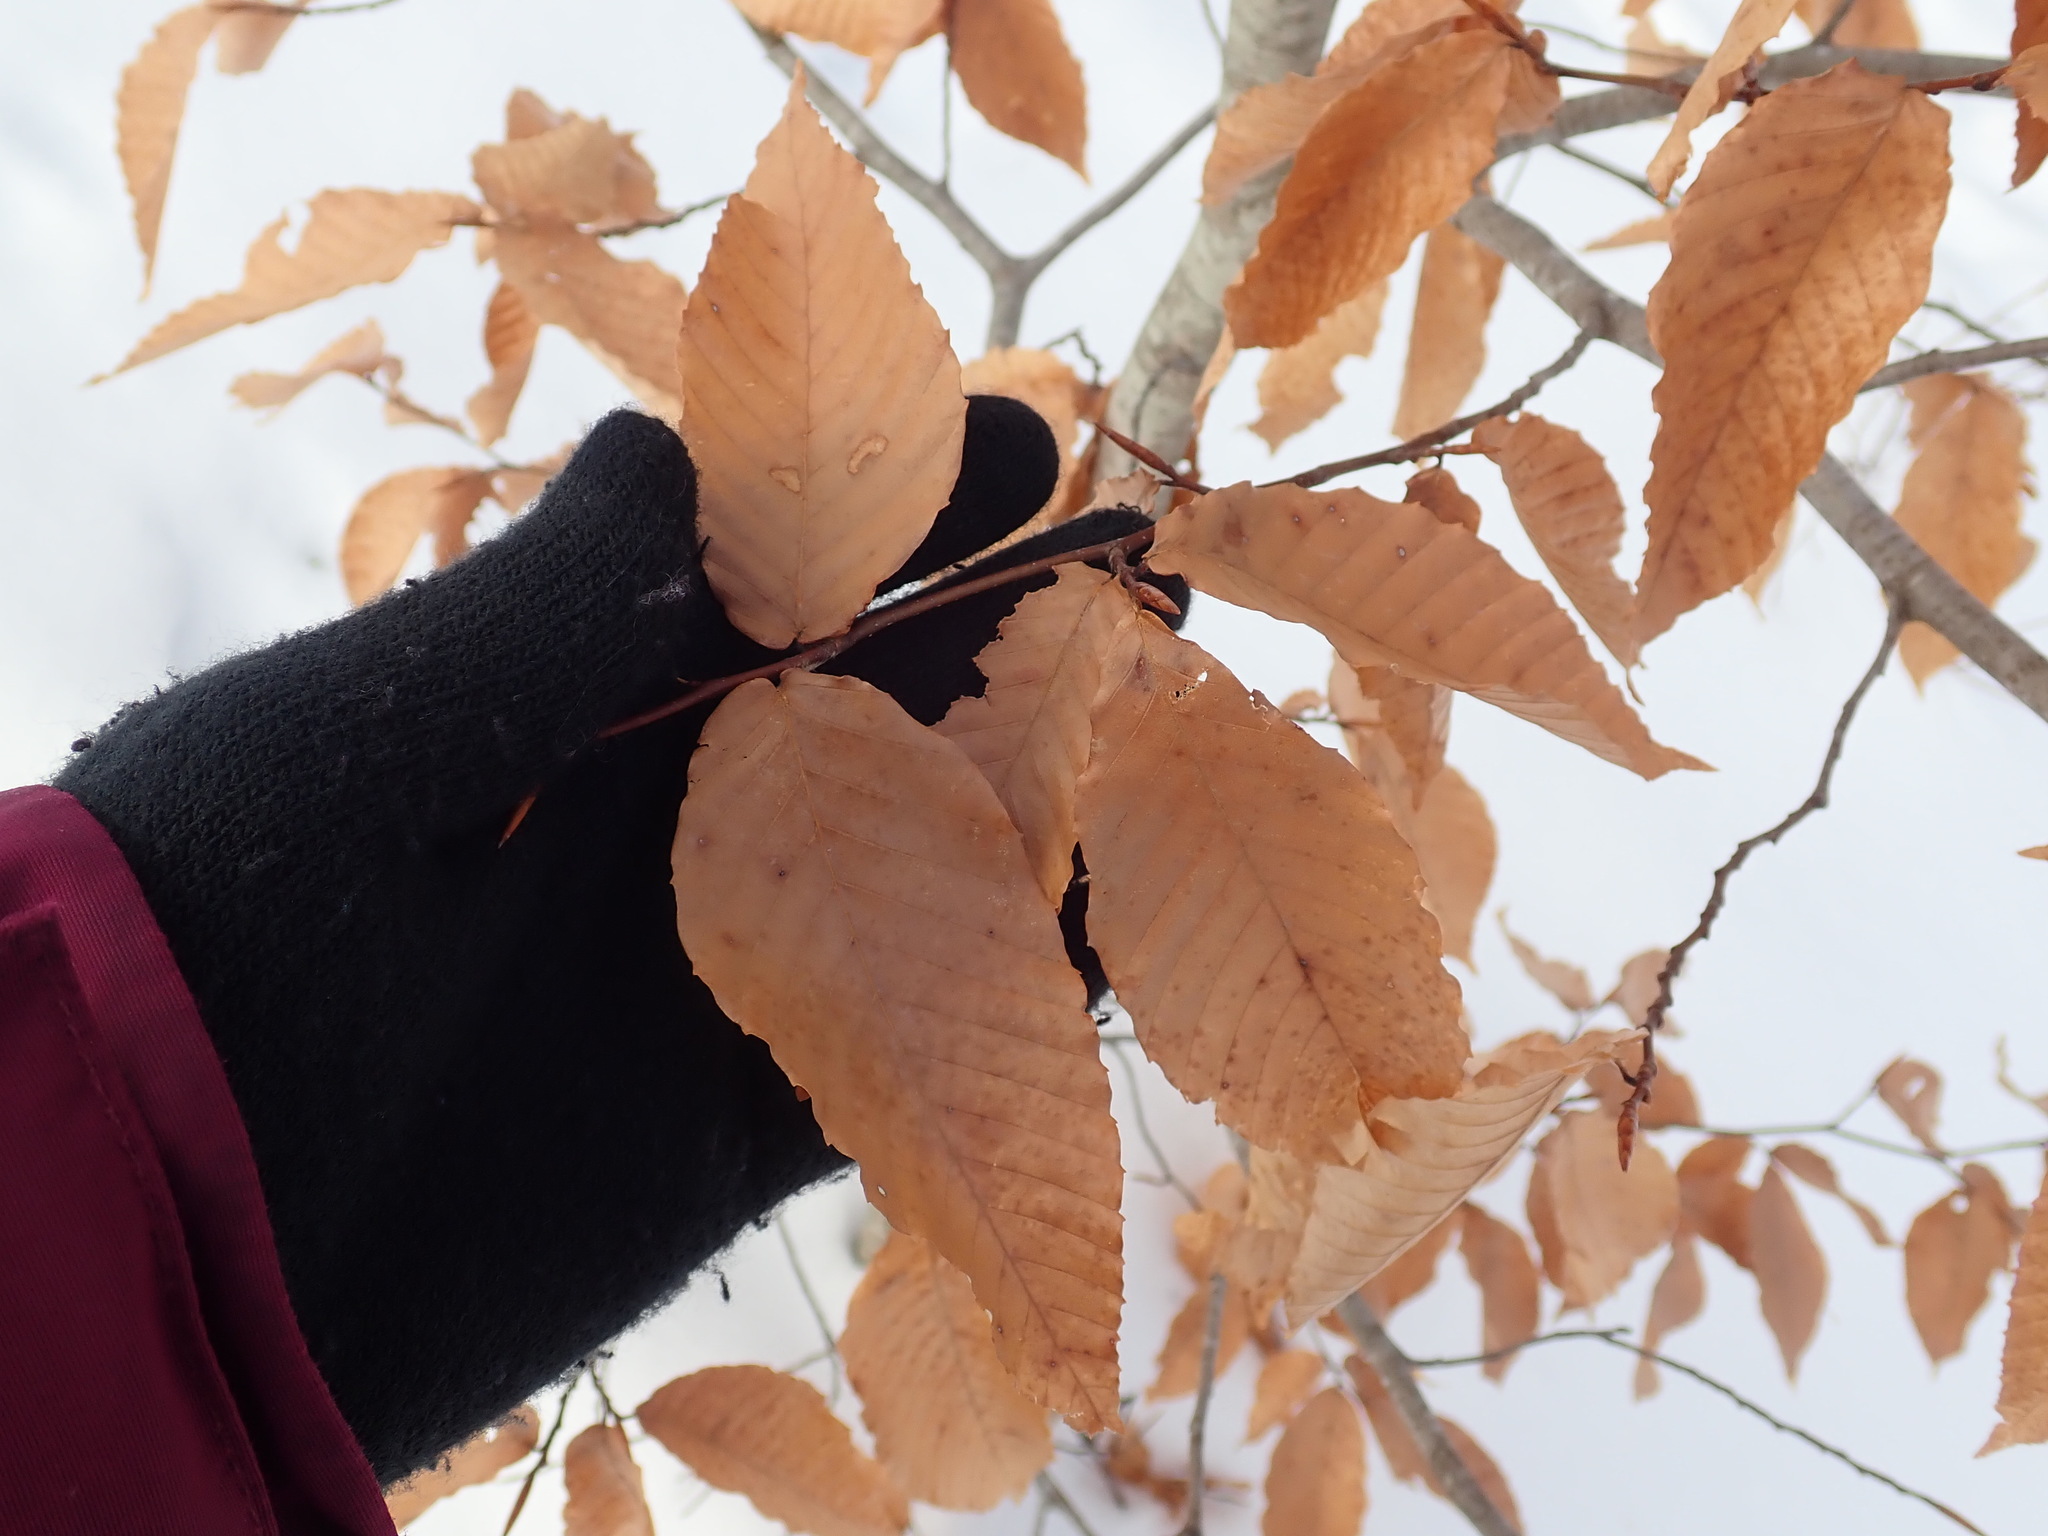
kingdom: Plantae
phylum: Tracheophyta
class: Magnoliopsida
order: Fagales
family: Fagaceae
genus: Fagus
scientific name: Fagus grandifolia
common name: American beech
